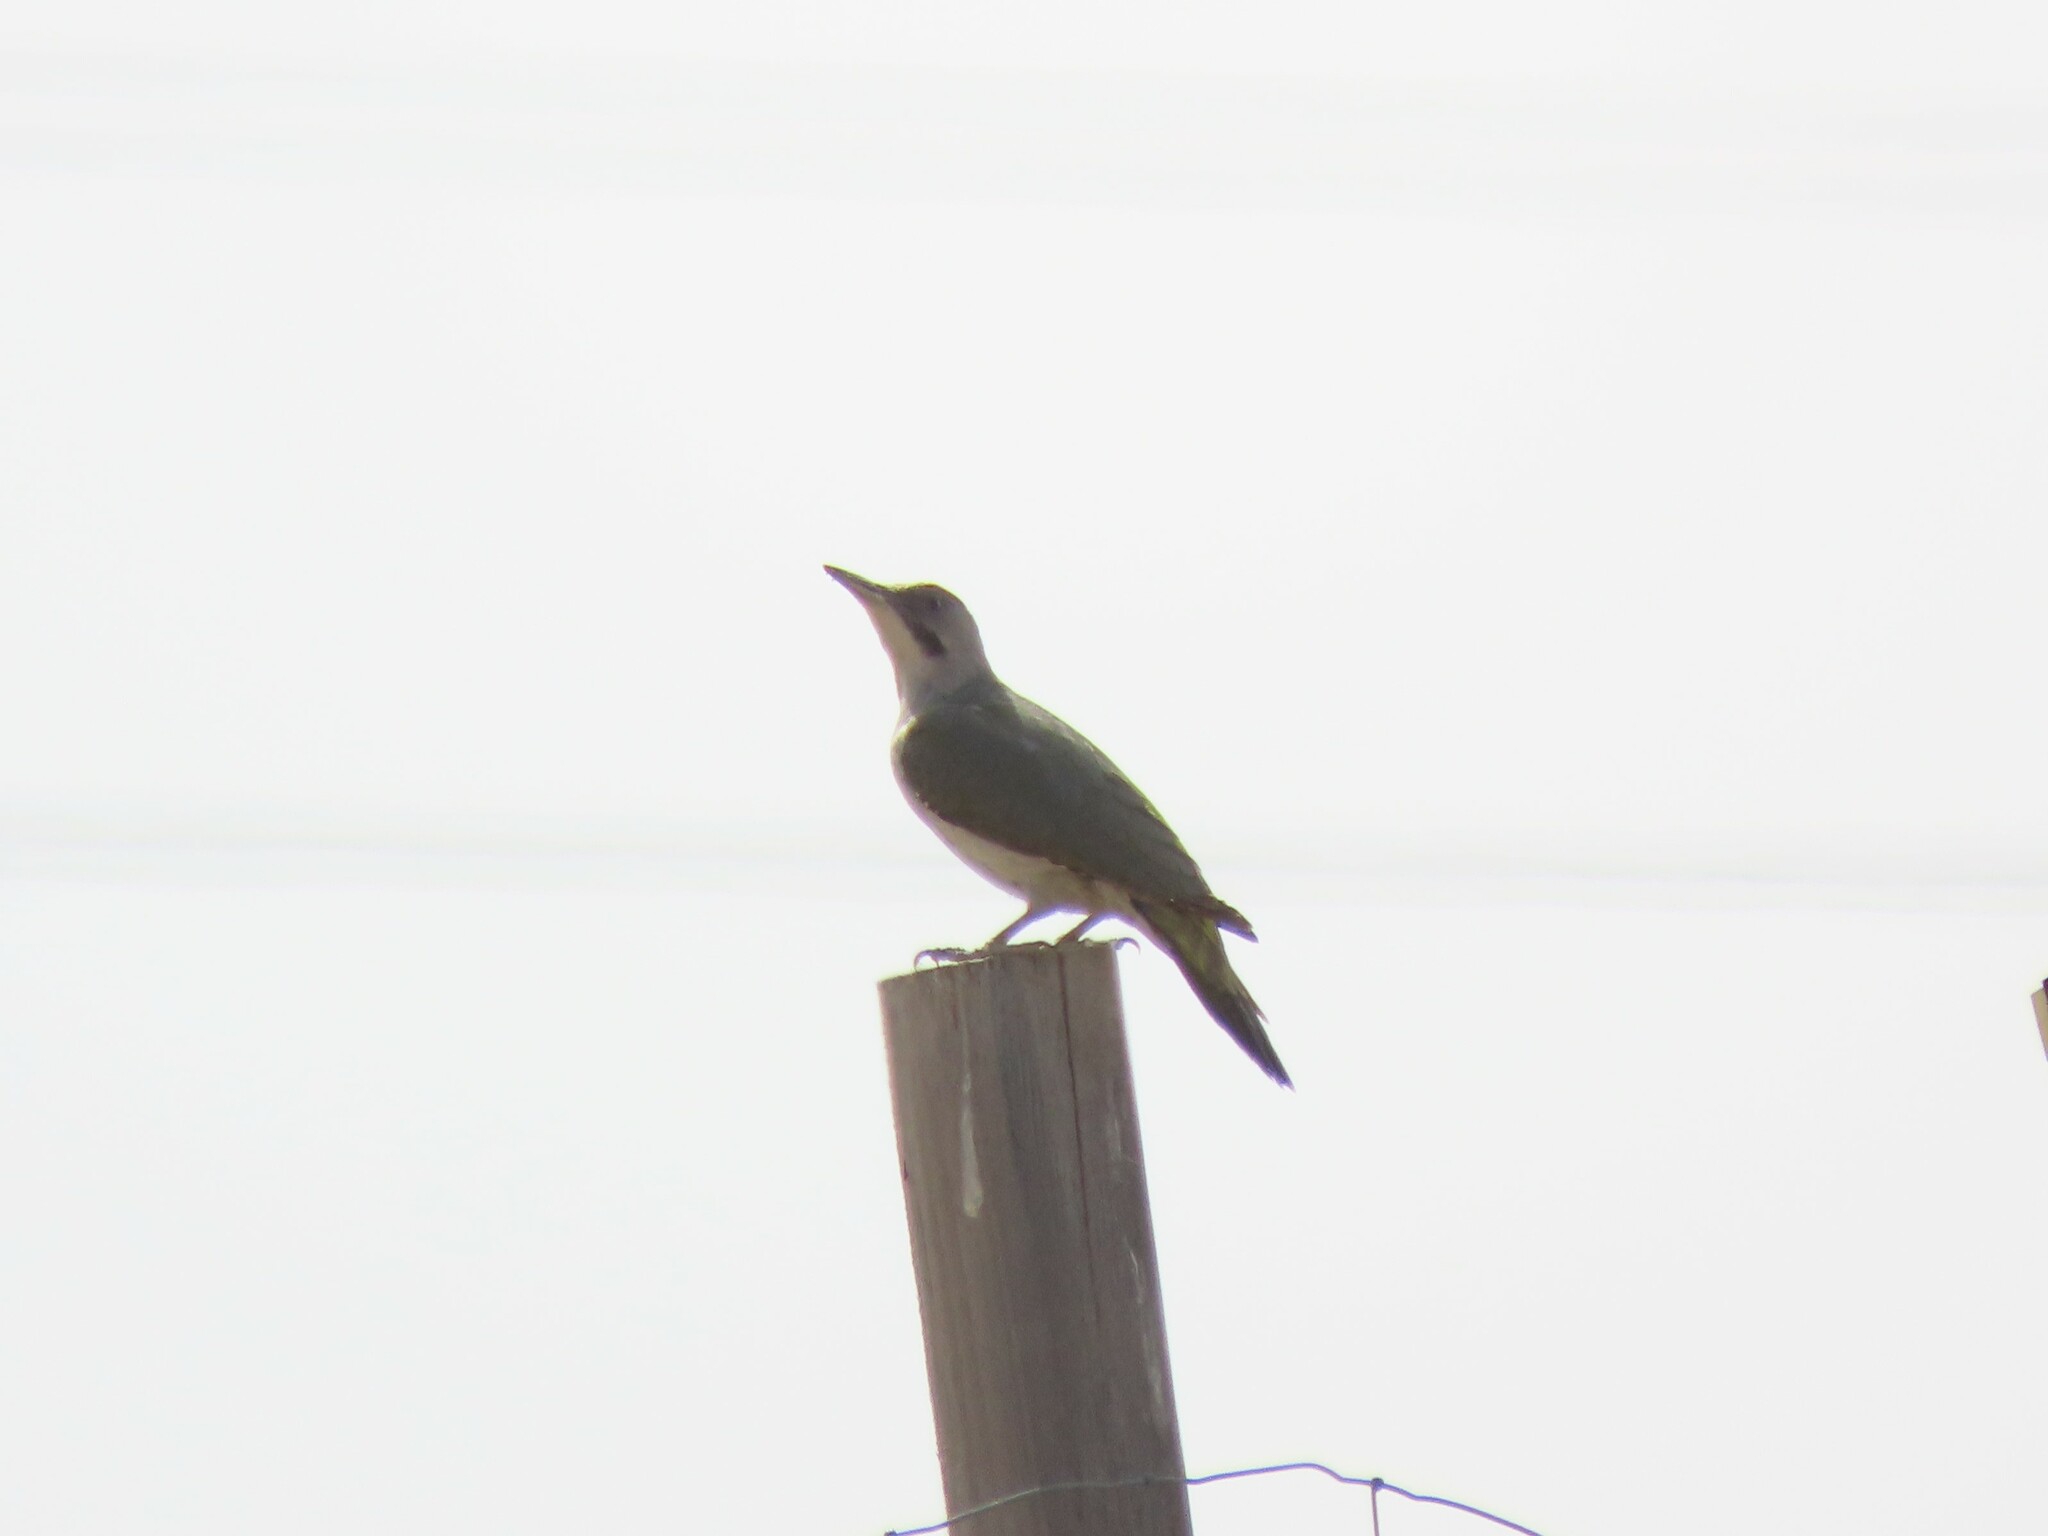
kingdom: Animalia
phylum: Chordata
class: Aves
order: Piciformes
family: Picidae
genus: Picus
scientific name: Picus sharpei
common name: Iberian green woodpecker
